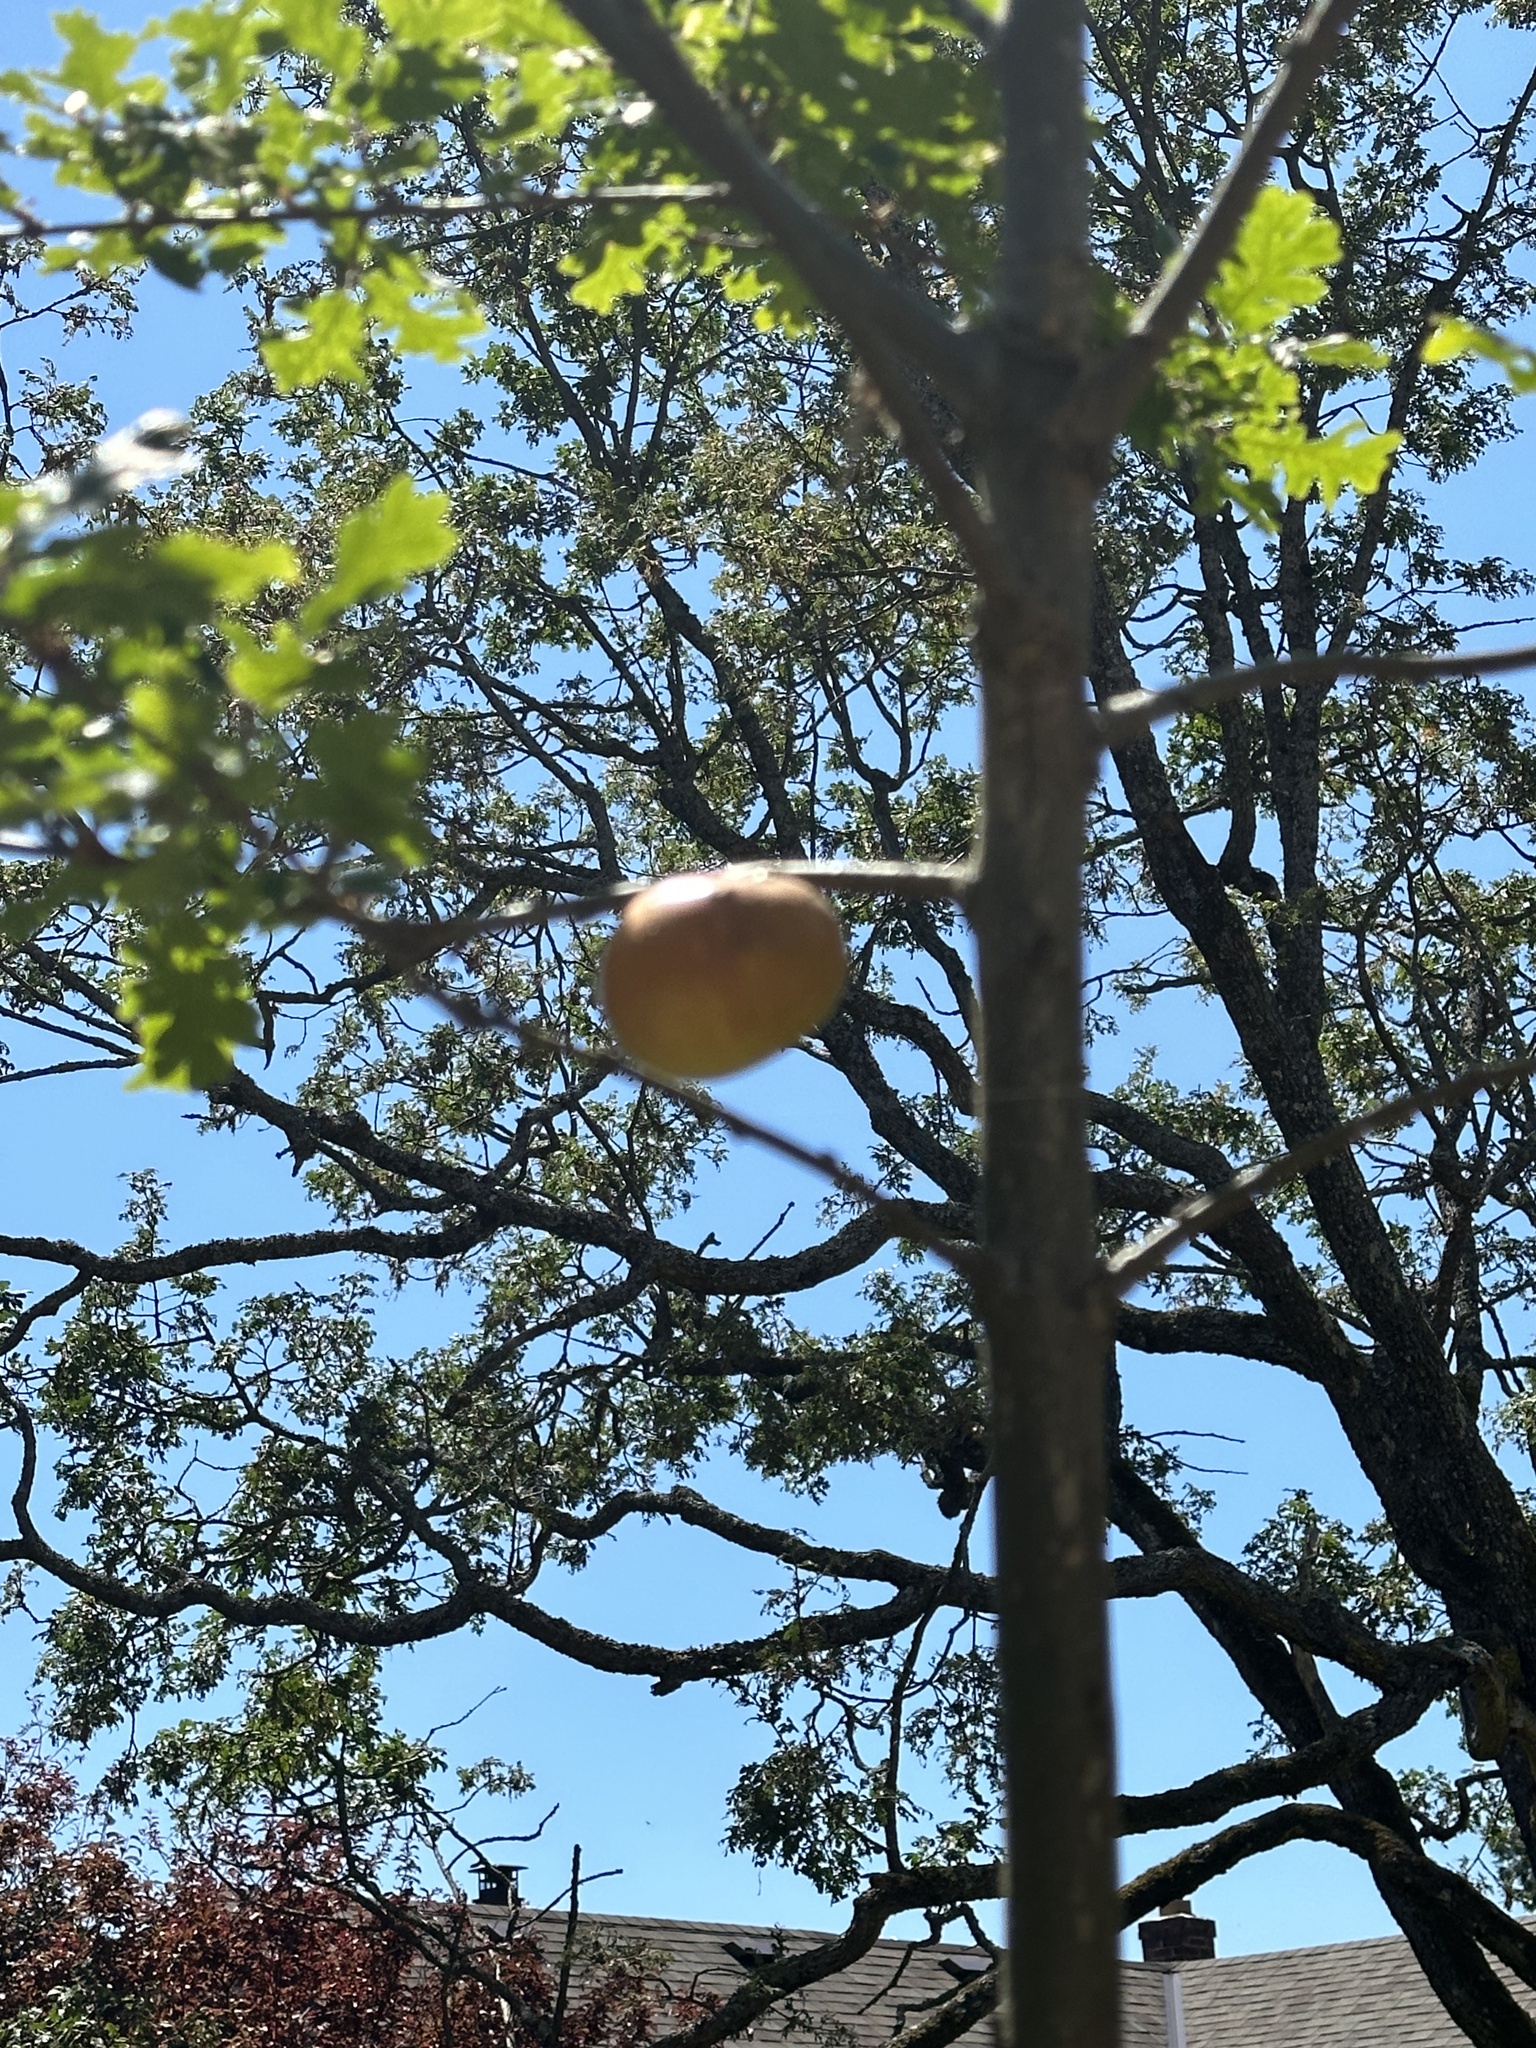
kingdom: Animalia
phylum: Arthropoda
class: Insecta
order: Hymenoptera
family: Cynipidae
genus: Andricus
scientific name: Andricus quercuscalifornicus
